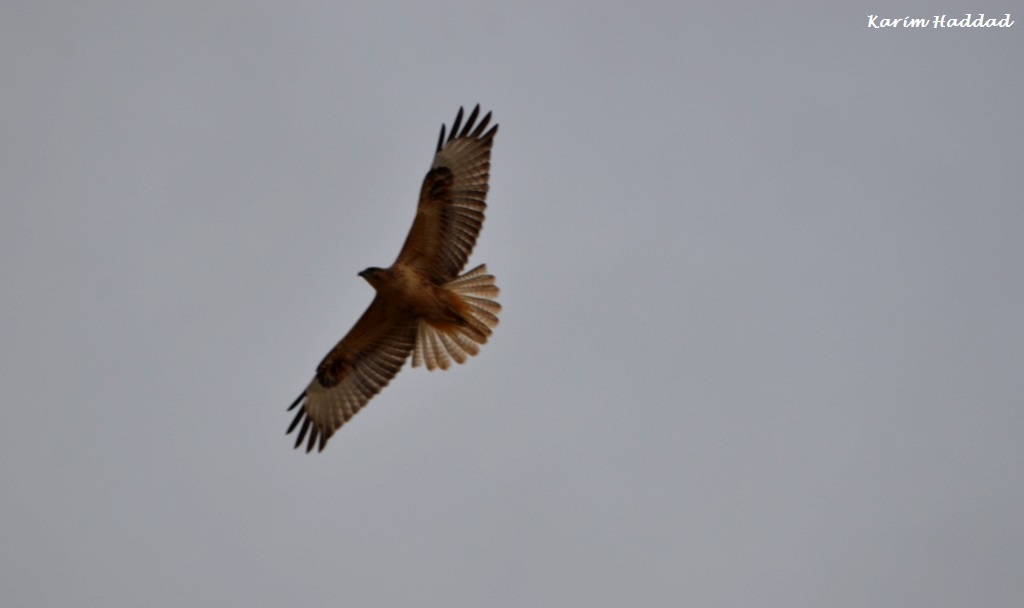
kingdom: Animalia
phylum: Chordata
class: Aves
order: Accipitriformes
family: Accipitridae
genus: Buteo
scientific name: Buteo rufinus
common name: Long-legged buzzard
